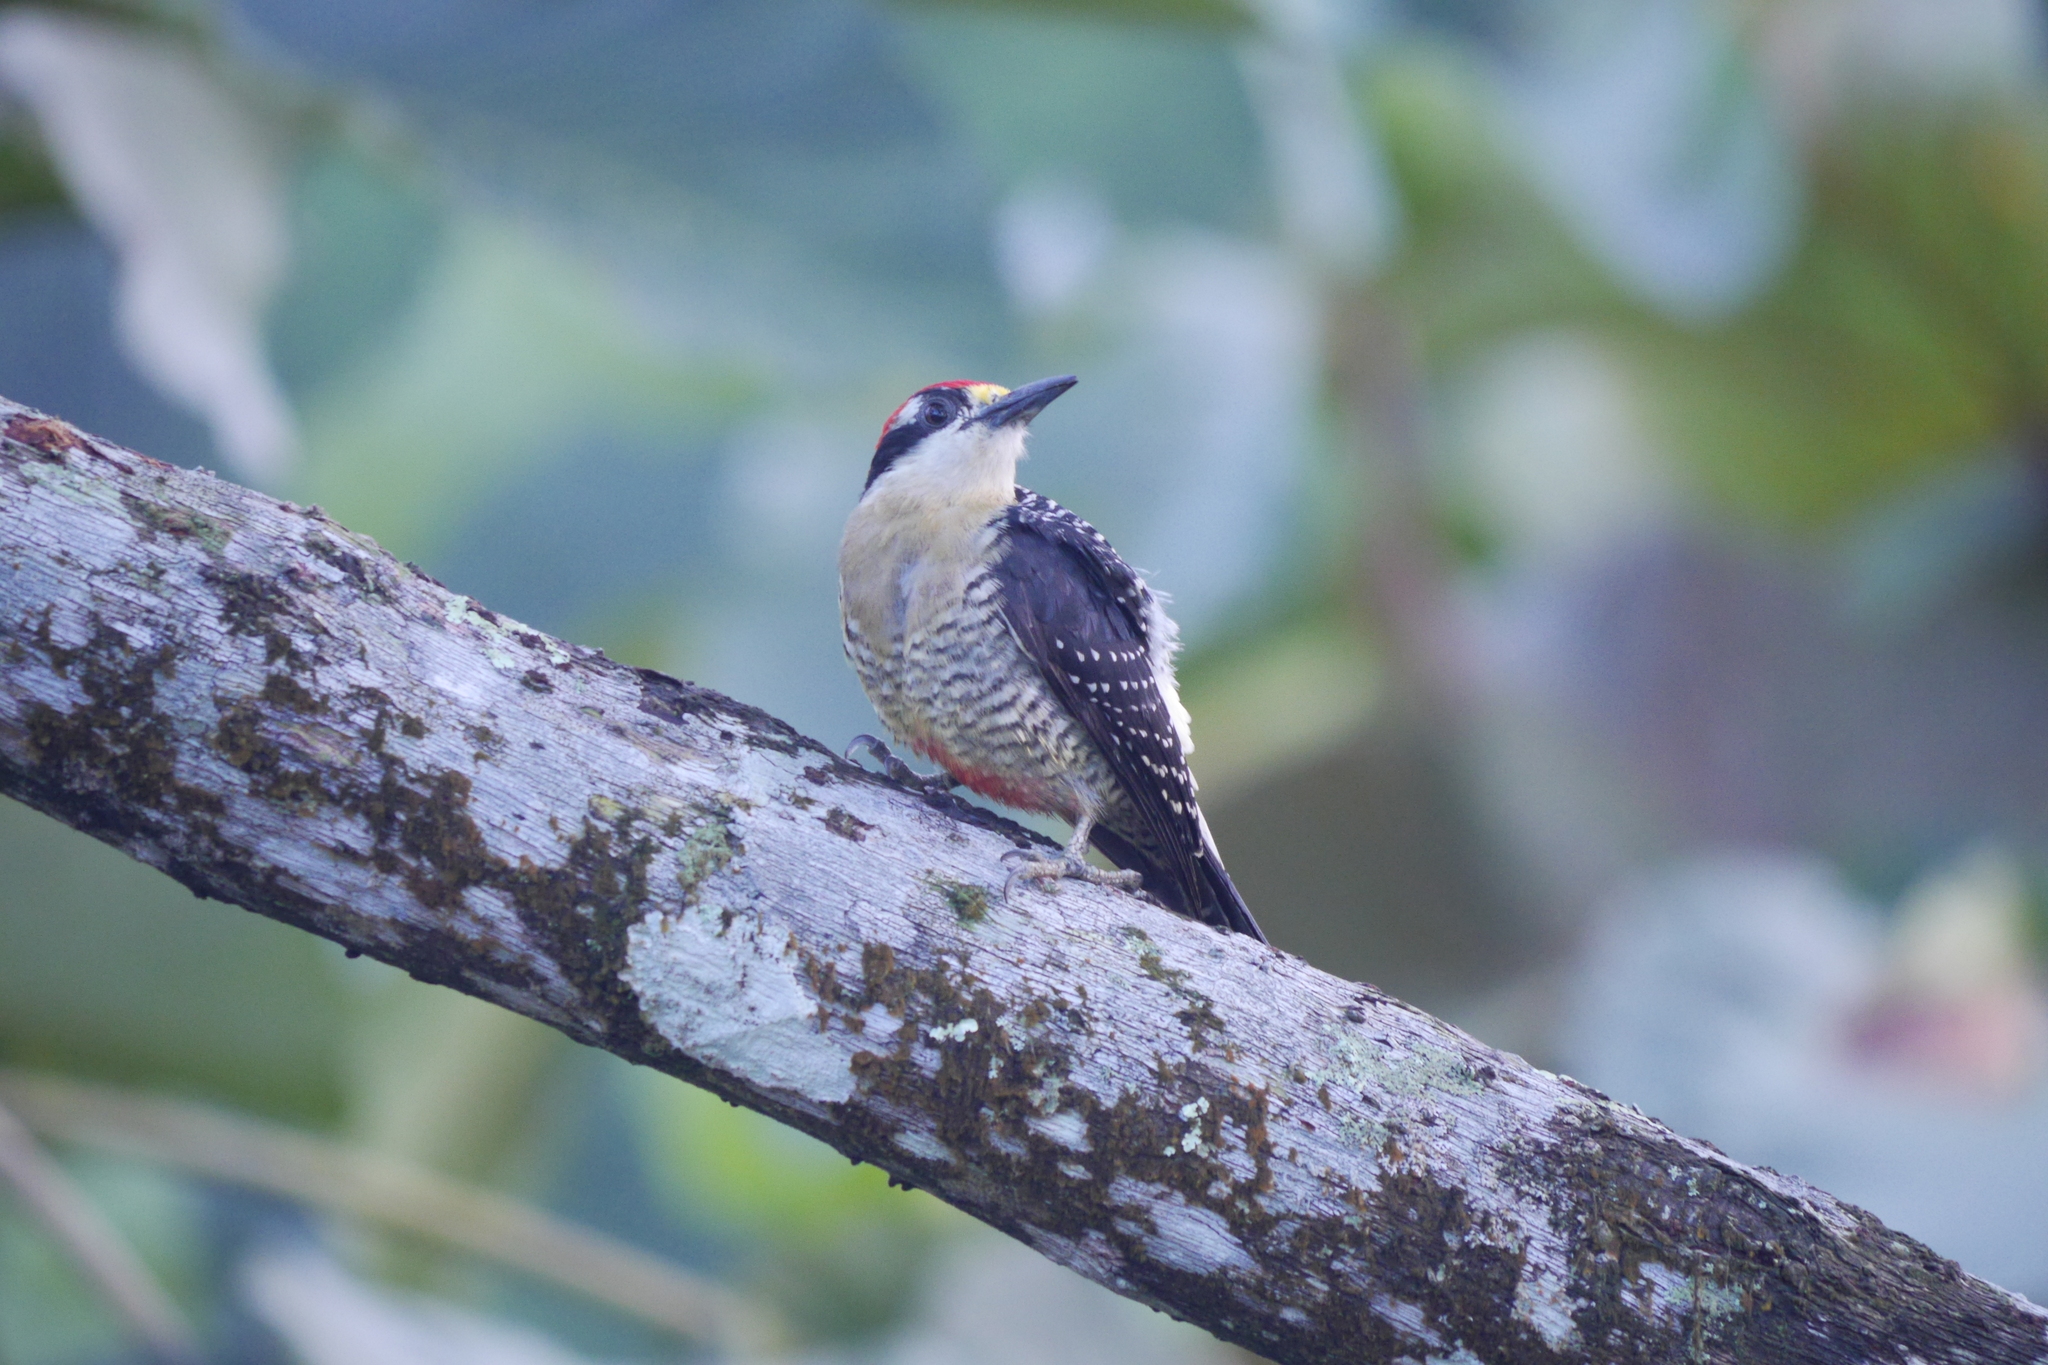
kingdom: Animalia
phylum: Chordata
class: Aves
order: Piciformes
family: Picidae
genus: Melanerpes
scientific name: Melanerpes pucherani
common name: Black-cheeked woodpecker
